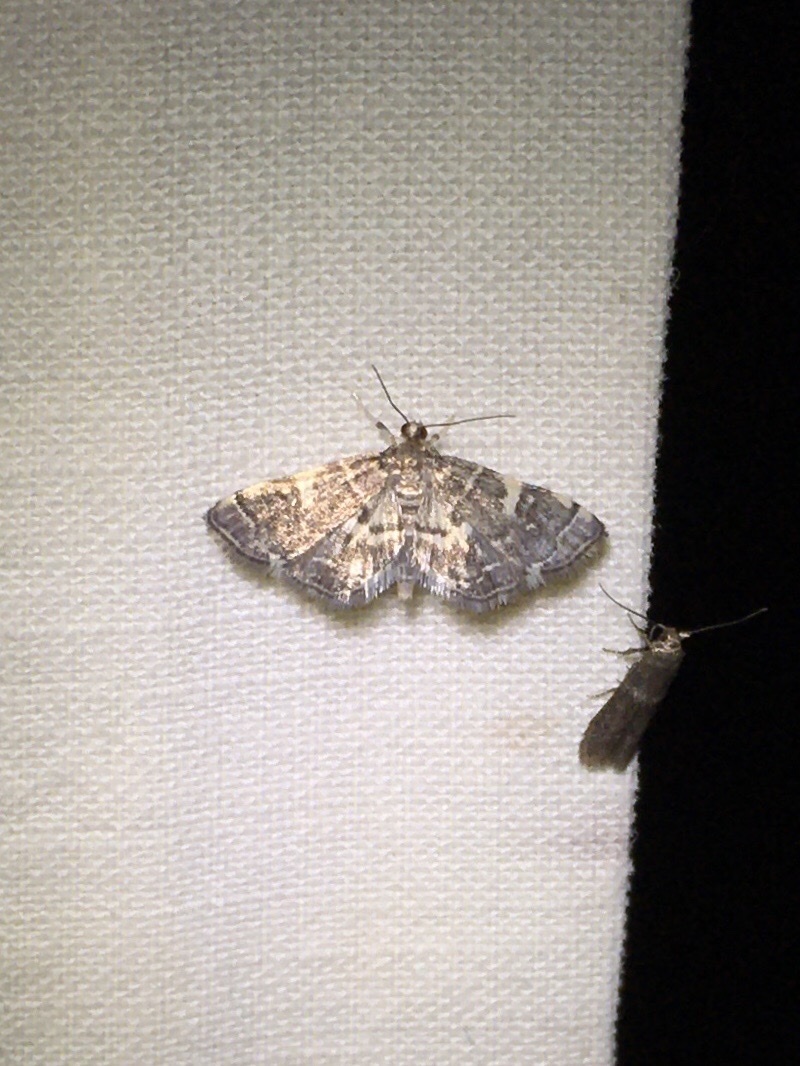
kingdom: Animalia
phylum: Arthropoda
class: Insecta
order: Lepidoptera
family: Crambidae
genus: Anageshna
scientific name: Anageshna primordialis
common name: Yellow-spotted webworm moth
